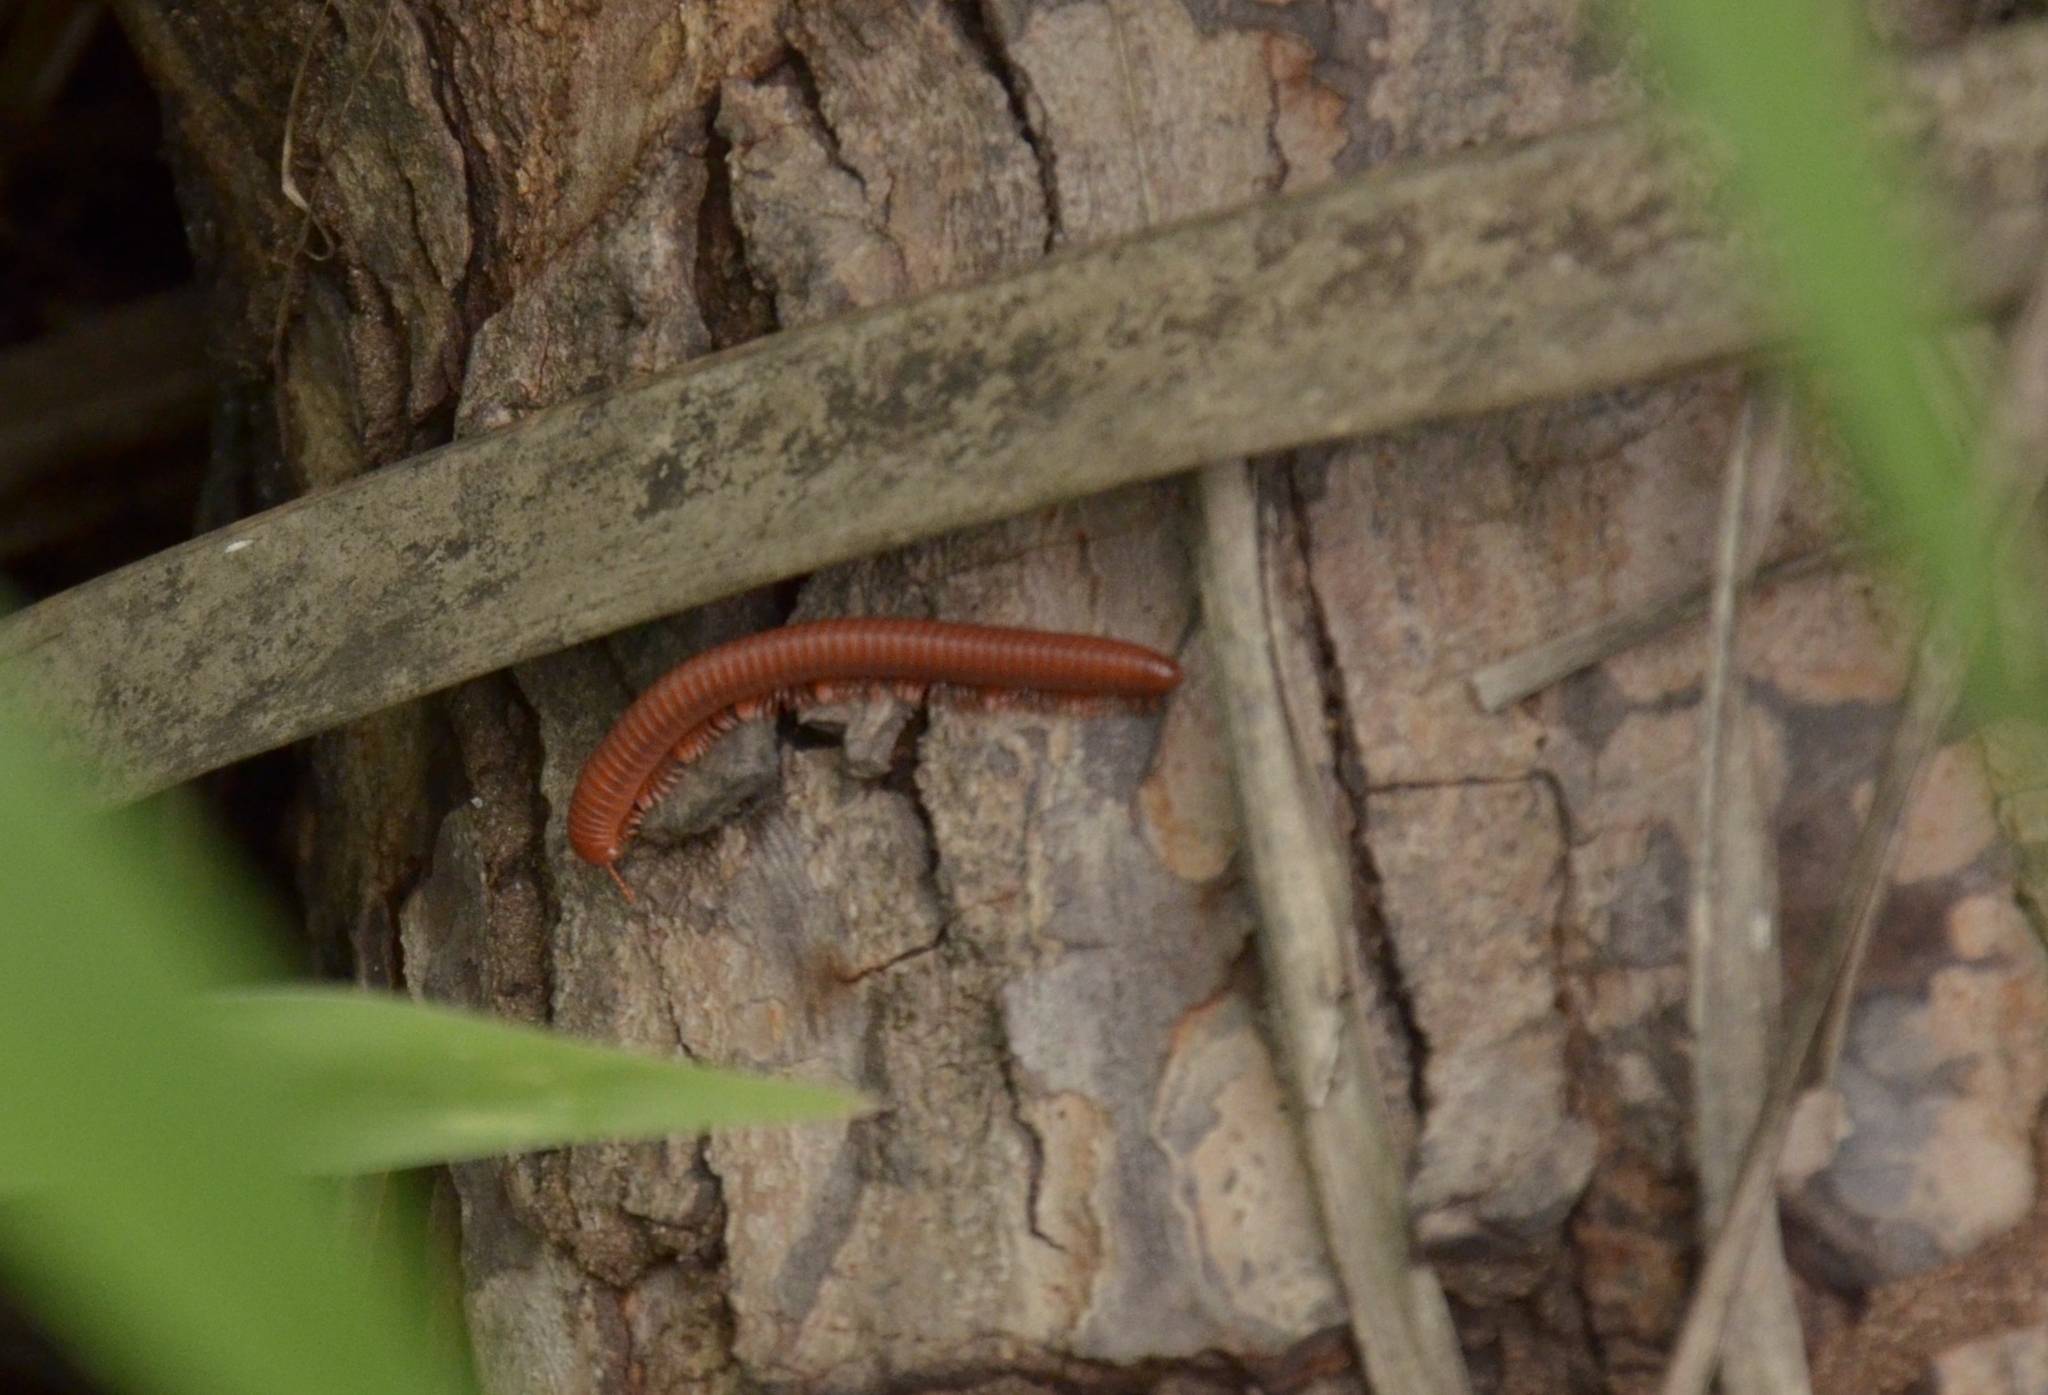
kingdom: Animalia
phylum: Arthropoda
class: Diplopoda
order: Spirobolida
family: Pachybolidae
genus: Trigoniulus
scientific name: Trigoniulus corallinus
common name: Millipede
